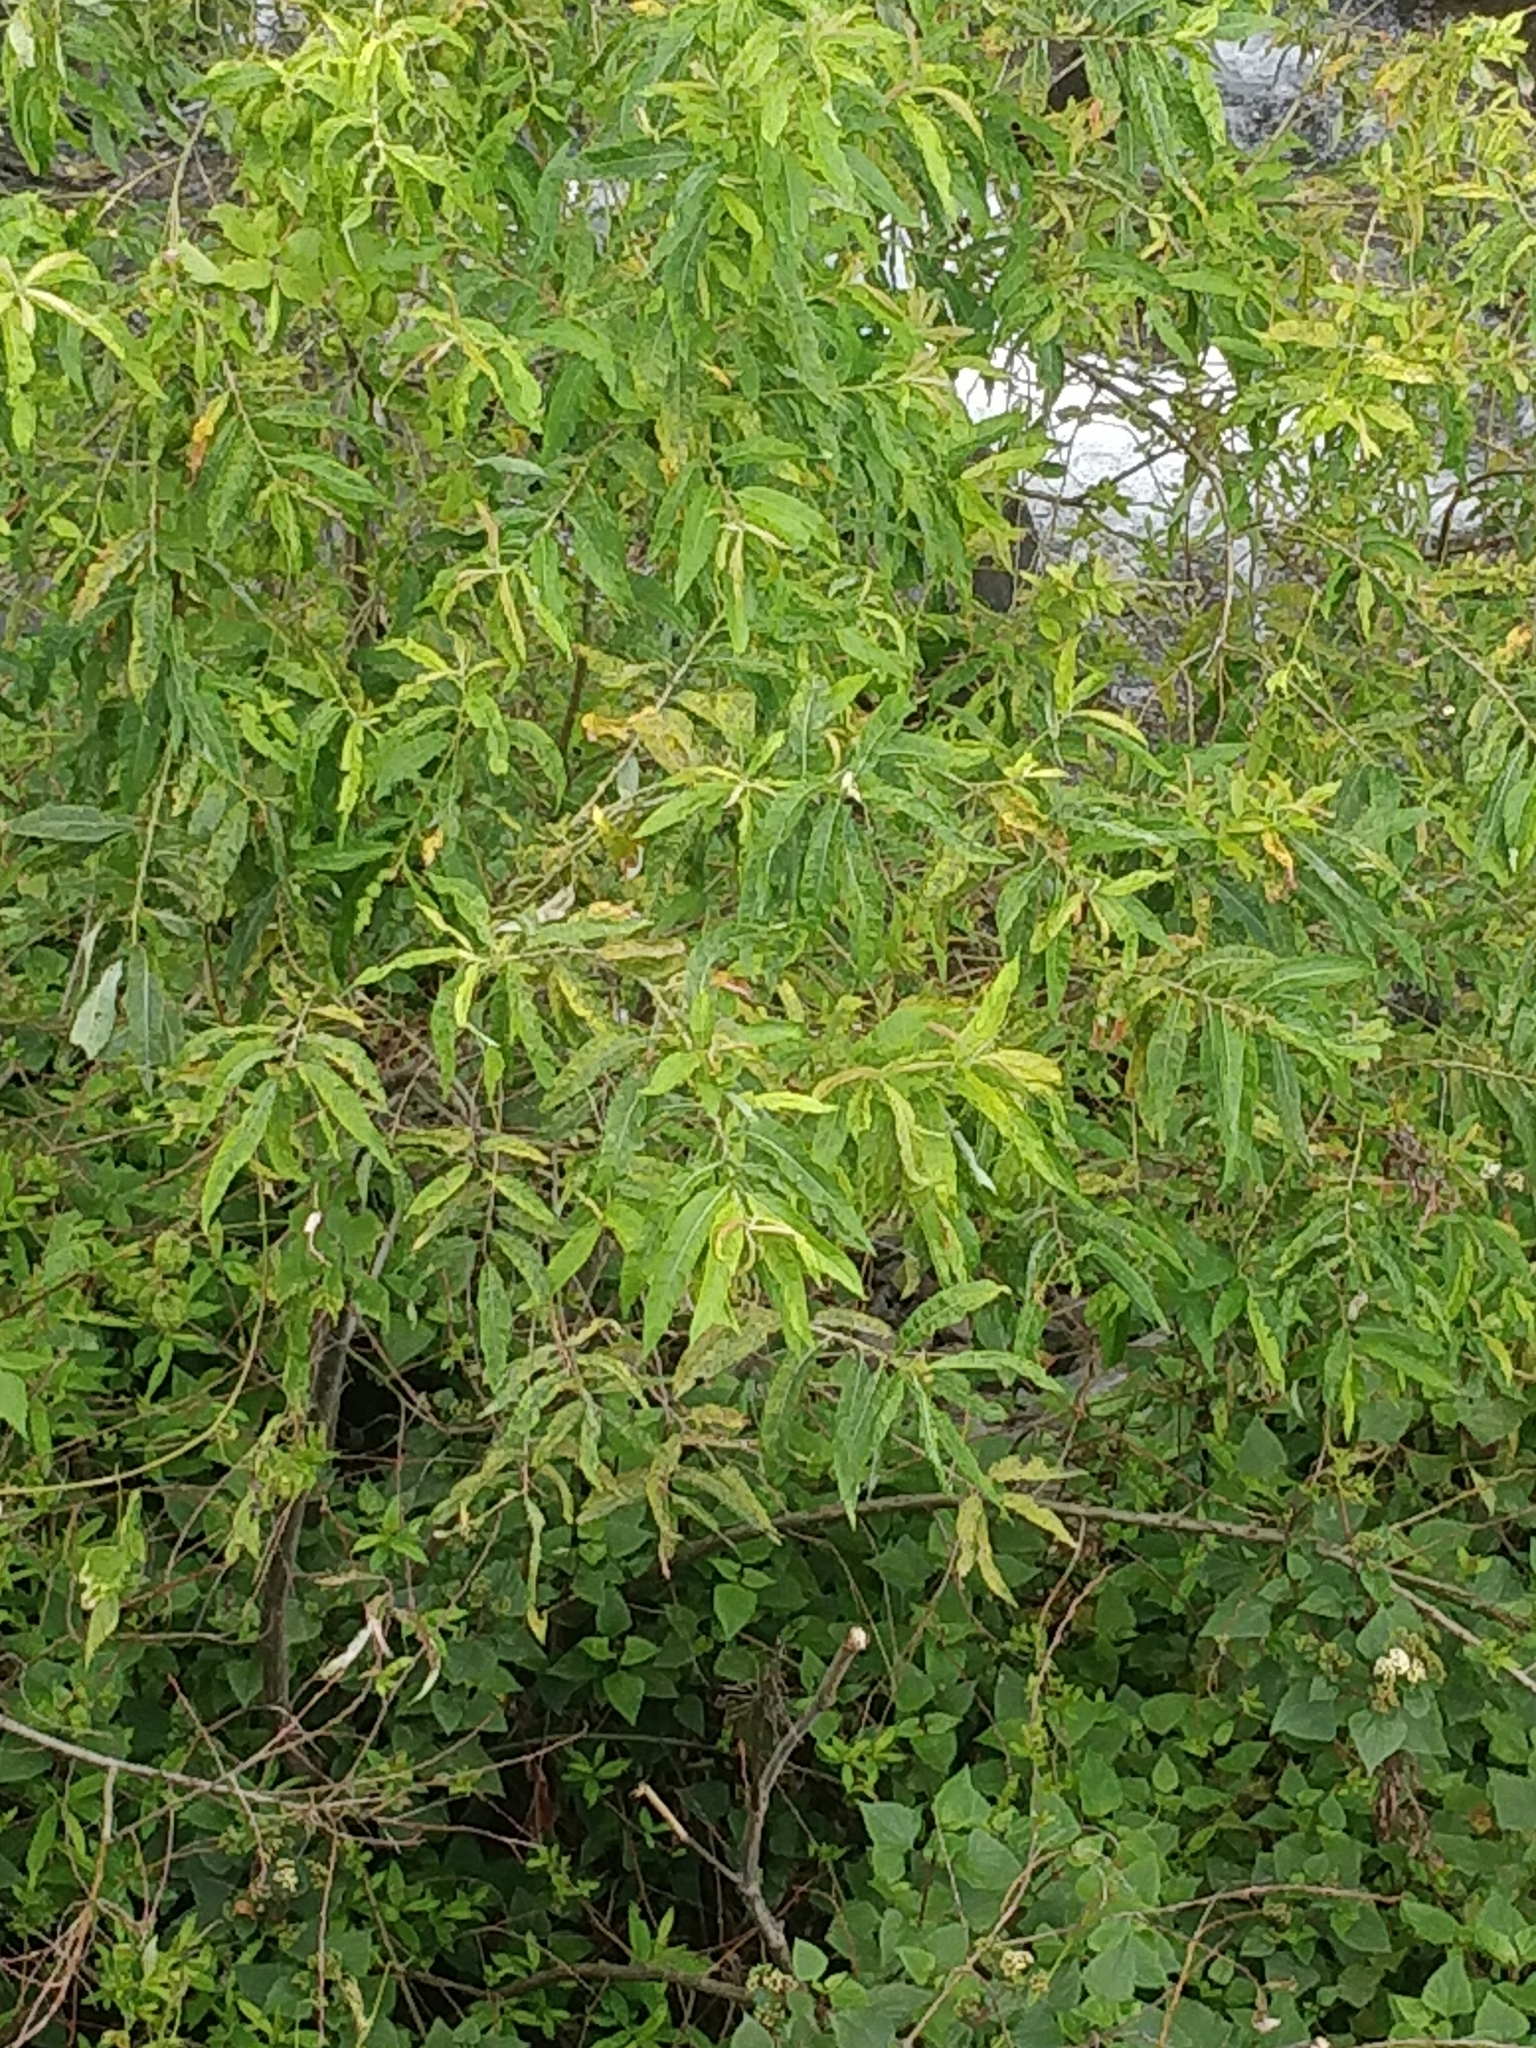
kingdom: Plantae
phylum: Tracheophyta
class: Magnoliopsida
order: Malpighiales
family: Salicaceae
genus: Salix
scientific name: Salix canariensis
